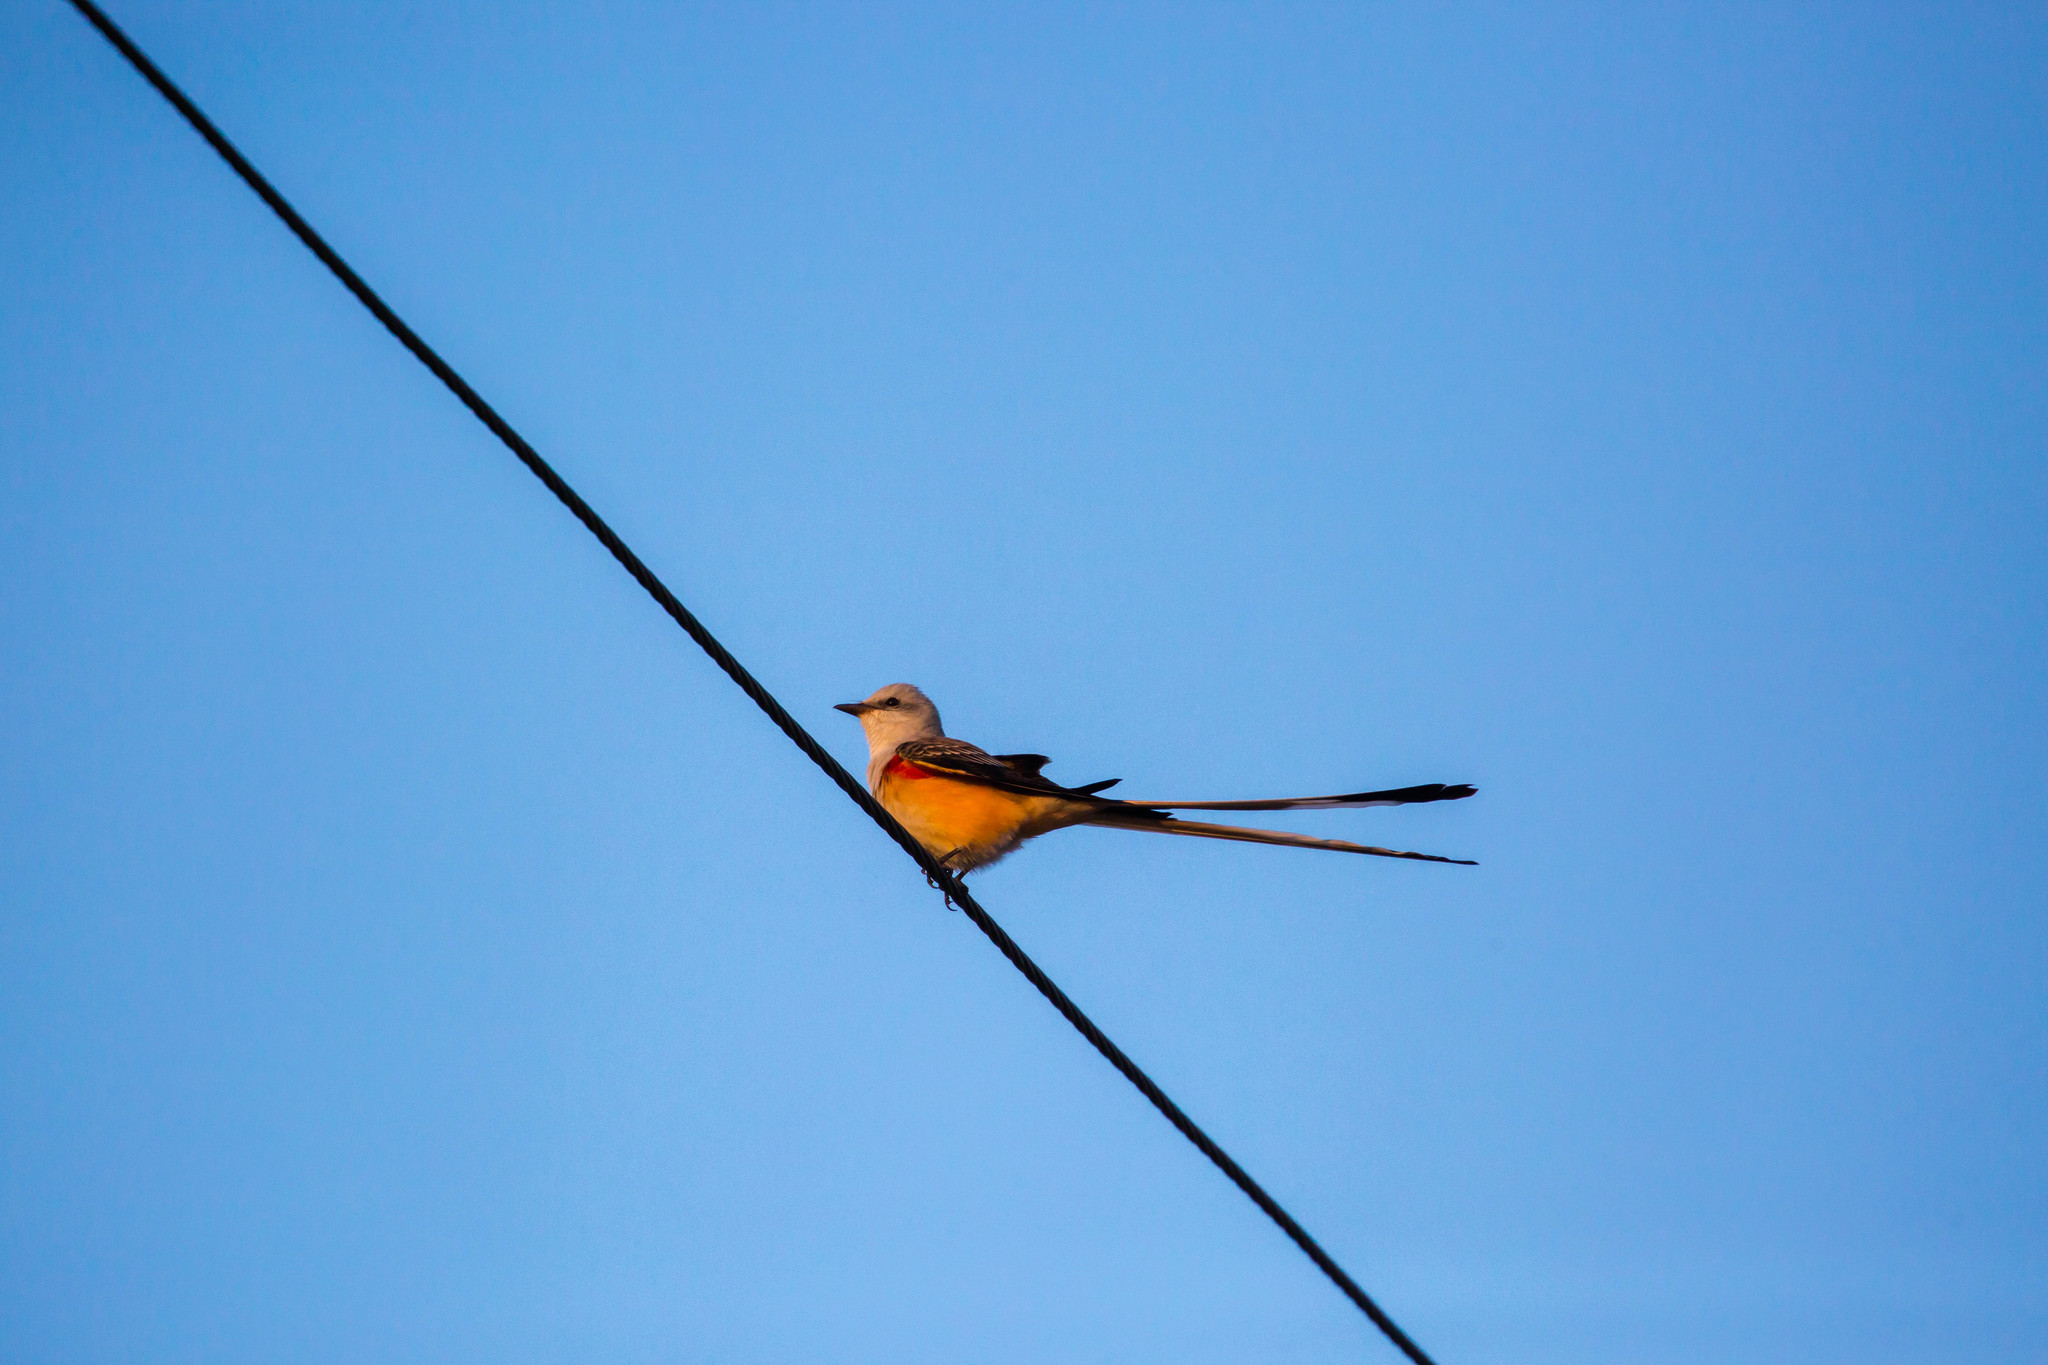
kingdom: Animalia
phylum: Chordata
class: Aves
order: Passeriformes
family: Tyrannidae
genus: Tyrannus
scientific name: Tyrannus forficatus
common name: Scissor-tailed flycatcher
